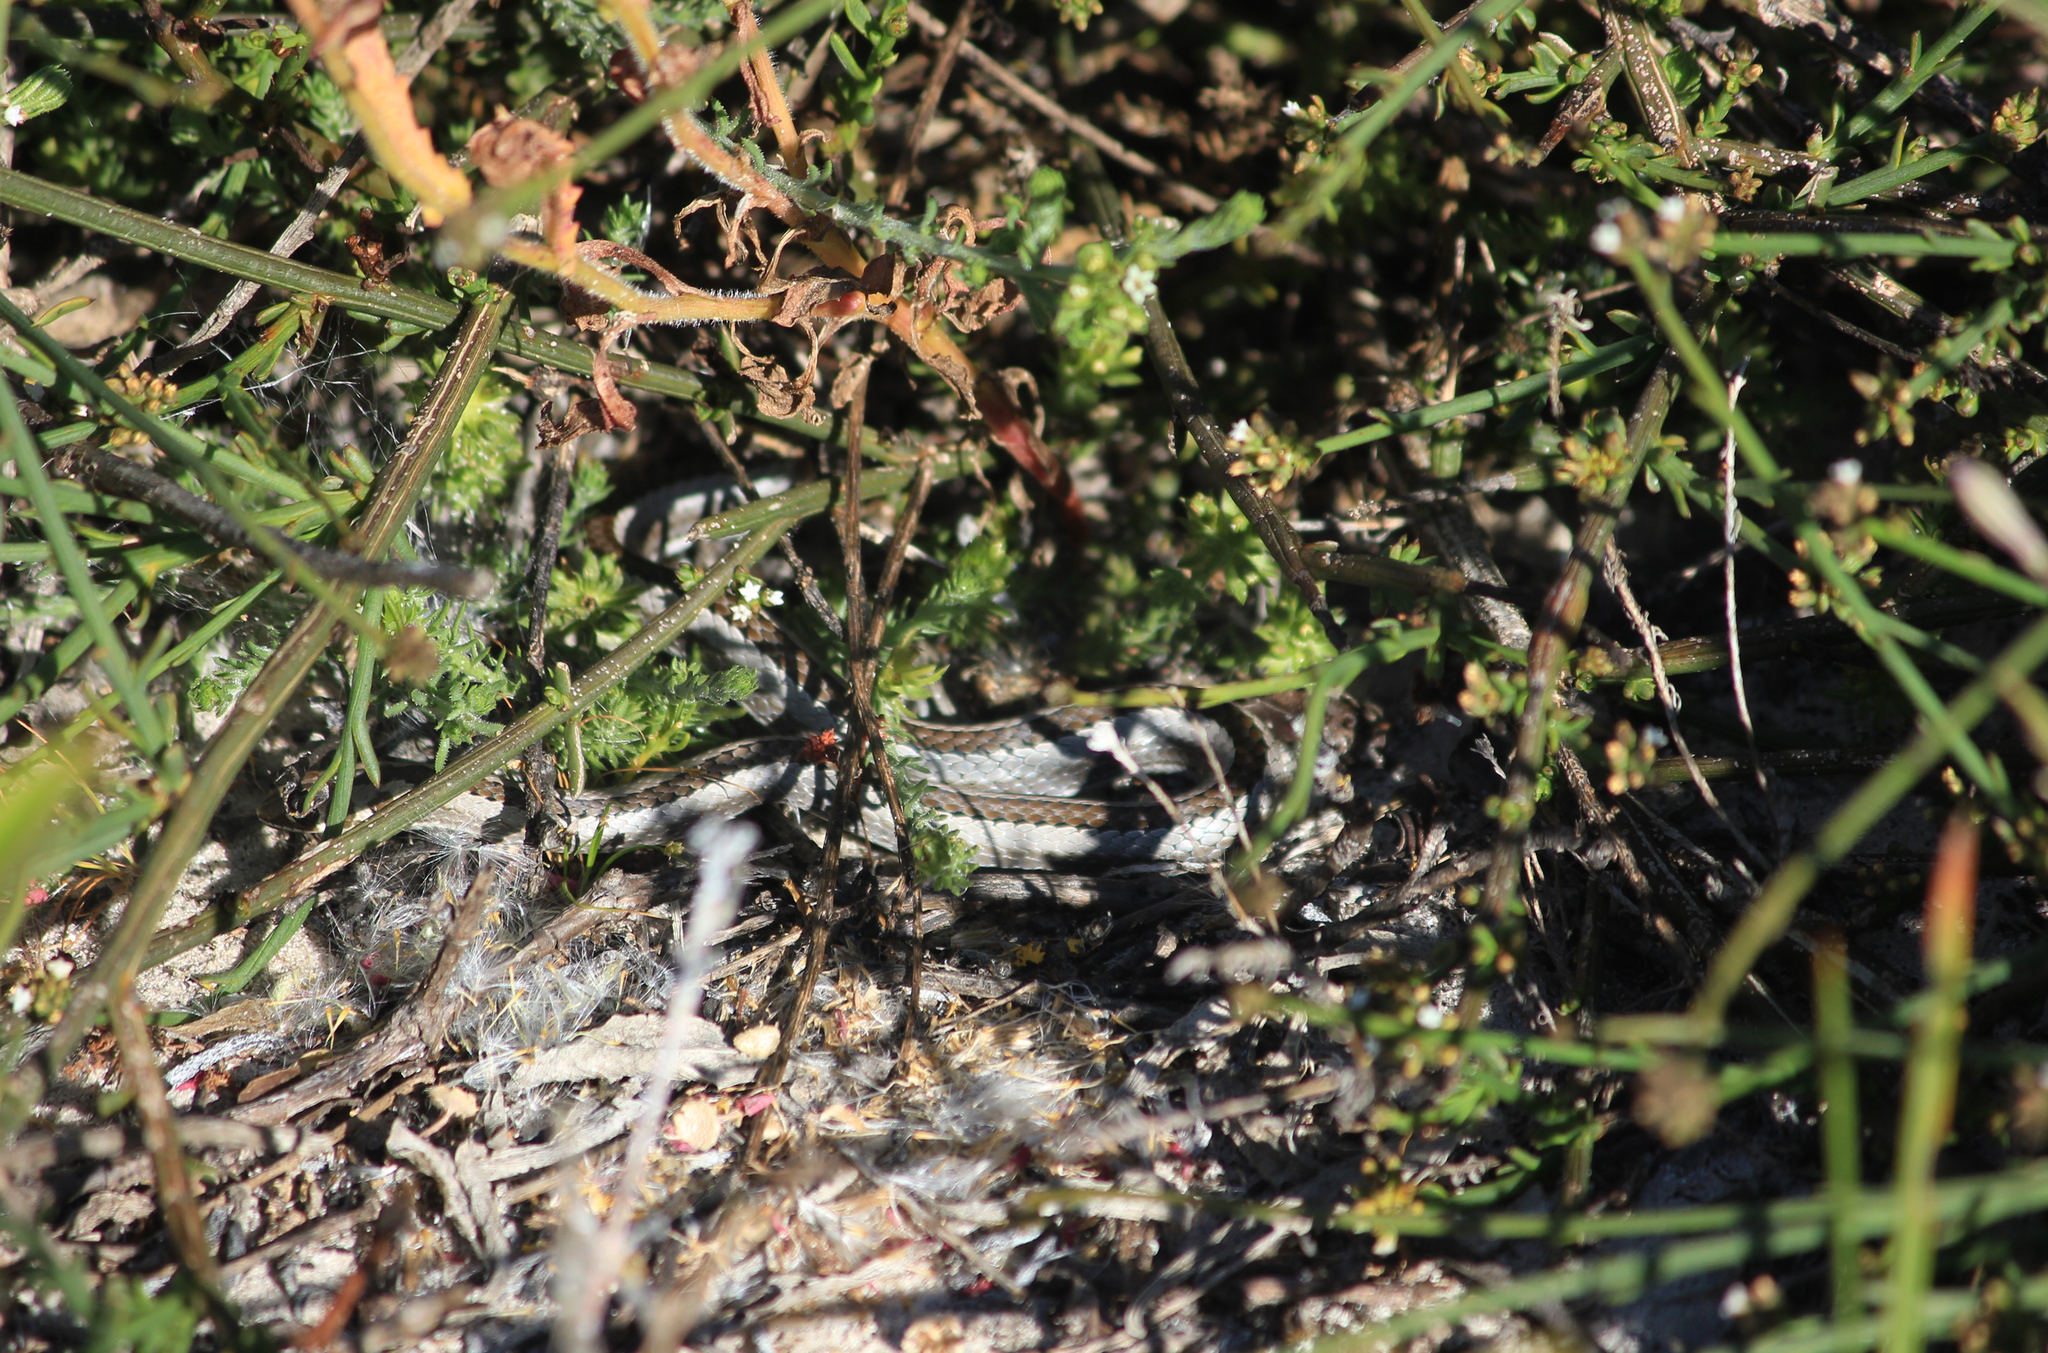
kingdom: Animalia
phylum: Chordata
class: Squamata
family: Psammophiidae
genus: Psammophis
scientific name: Psammophis crucifer
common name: Cross-marked grass snake
